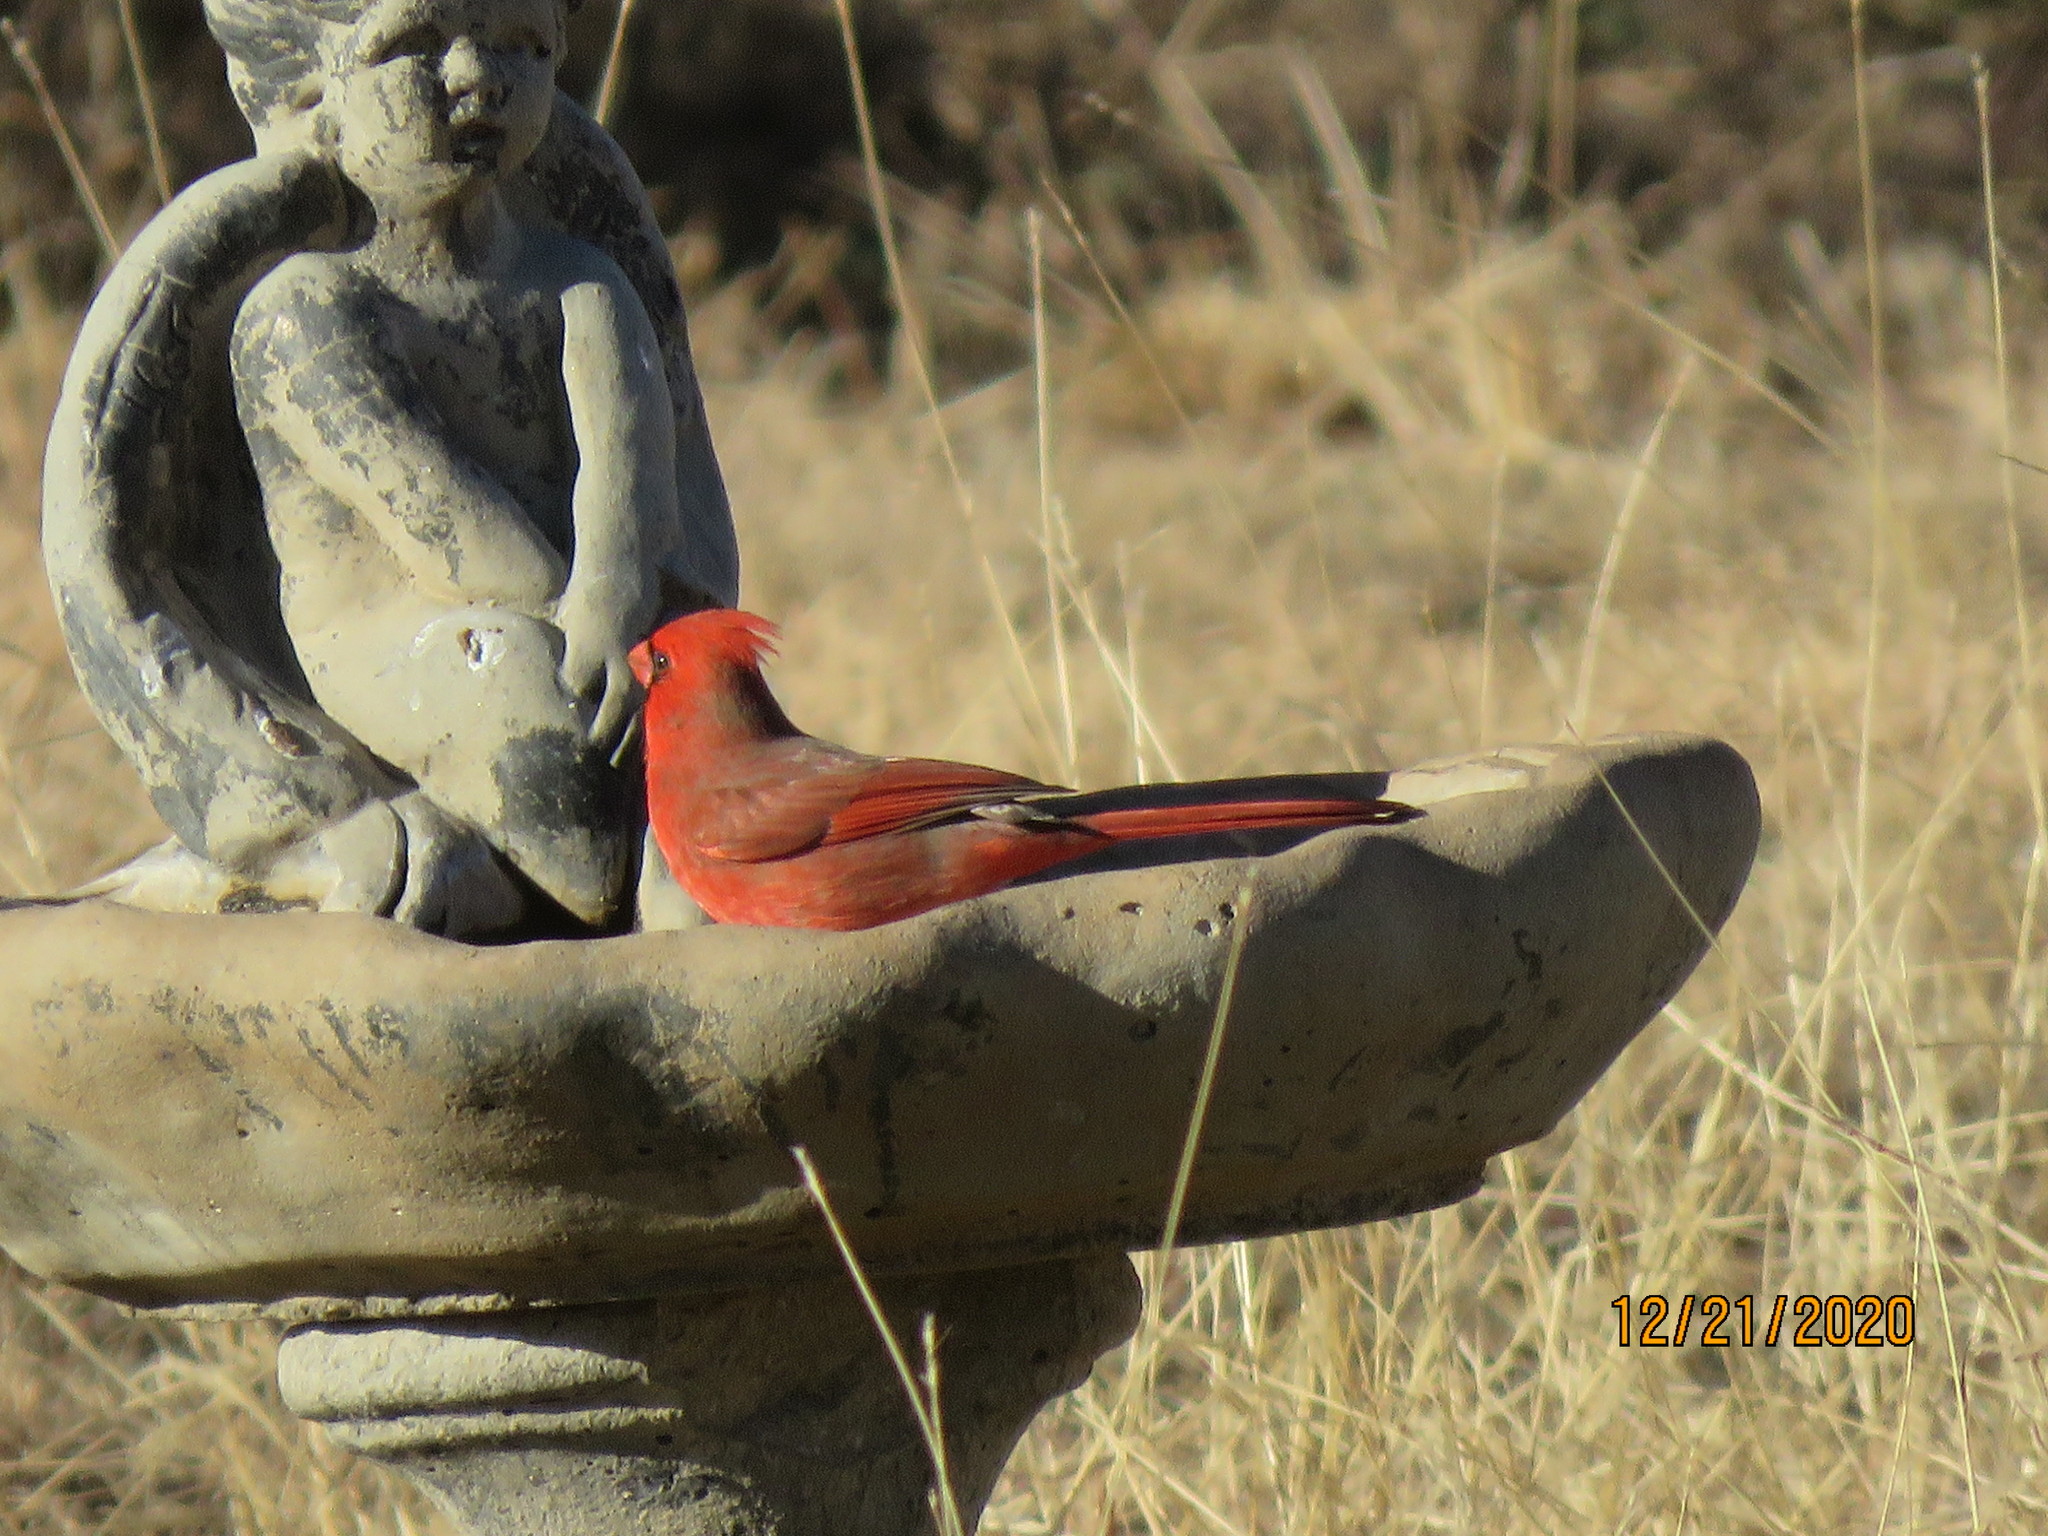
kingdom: Animalia
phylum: Chordata
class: Aves
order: Passeriformes
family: Cardinalidae
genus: Cardinalis
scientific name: Cardinalis cardinalis
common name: Northern cardinal
